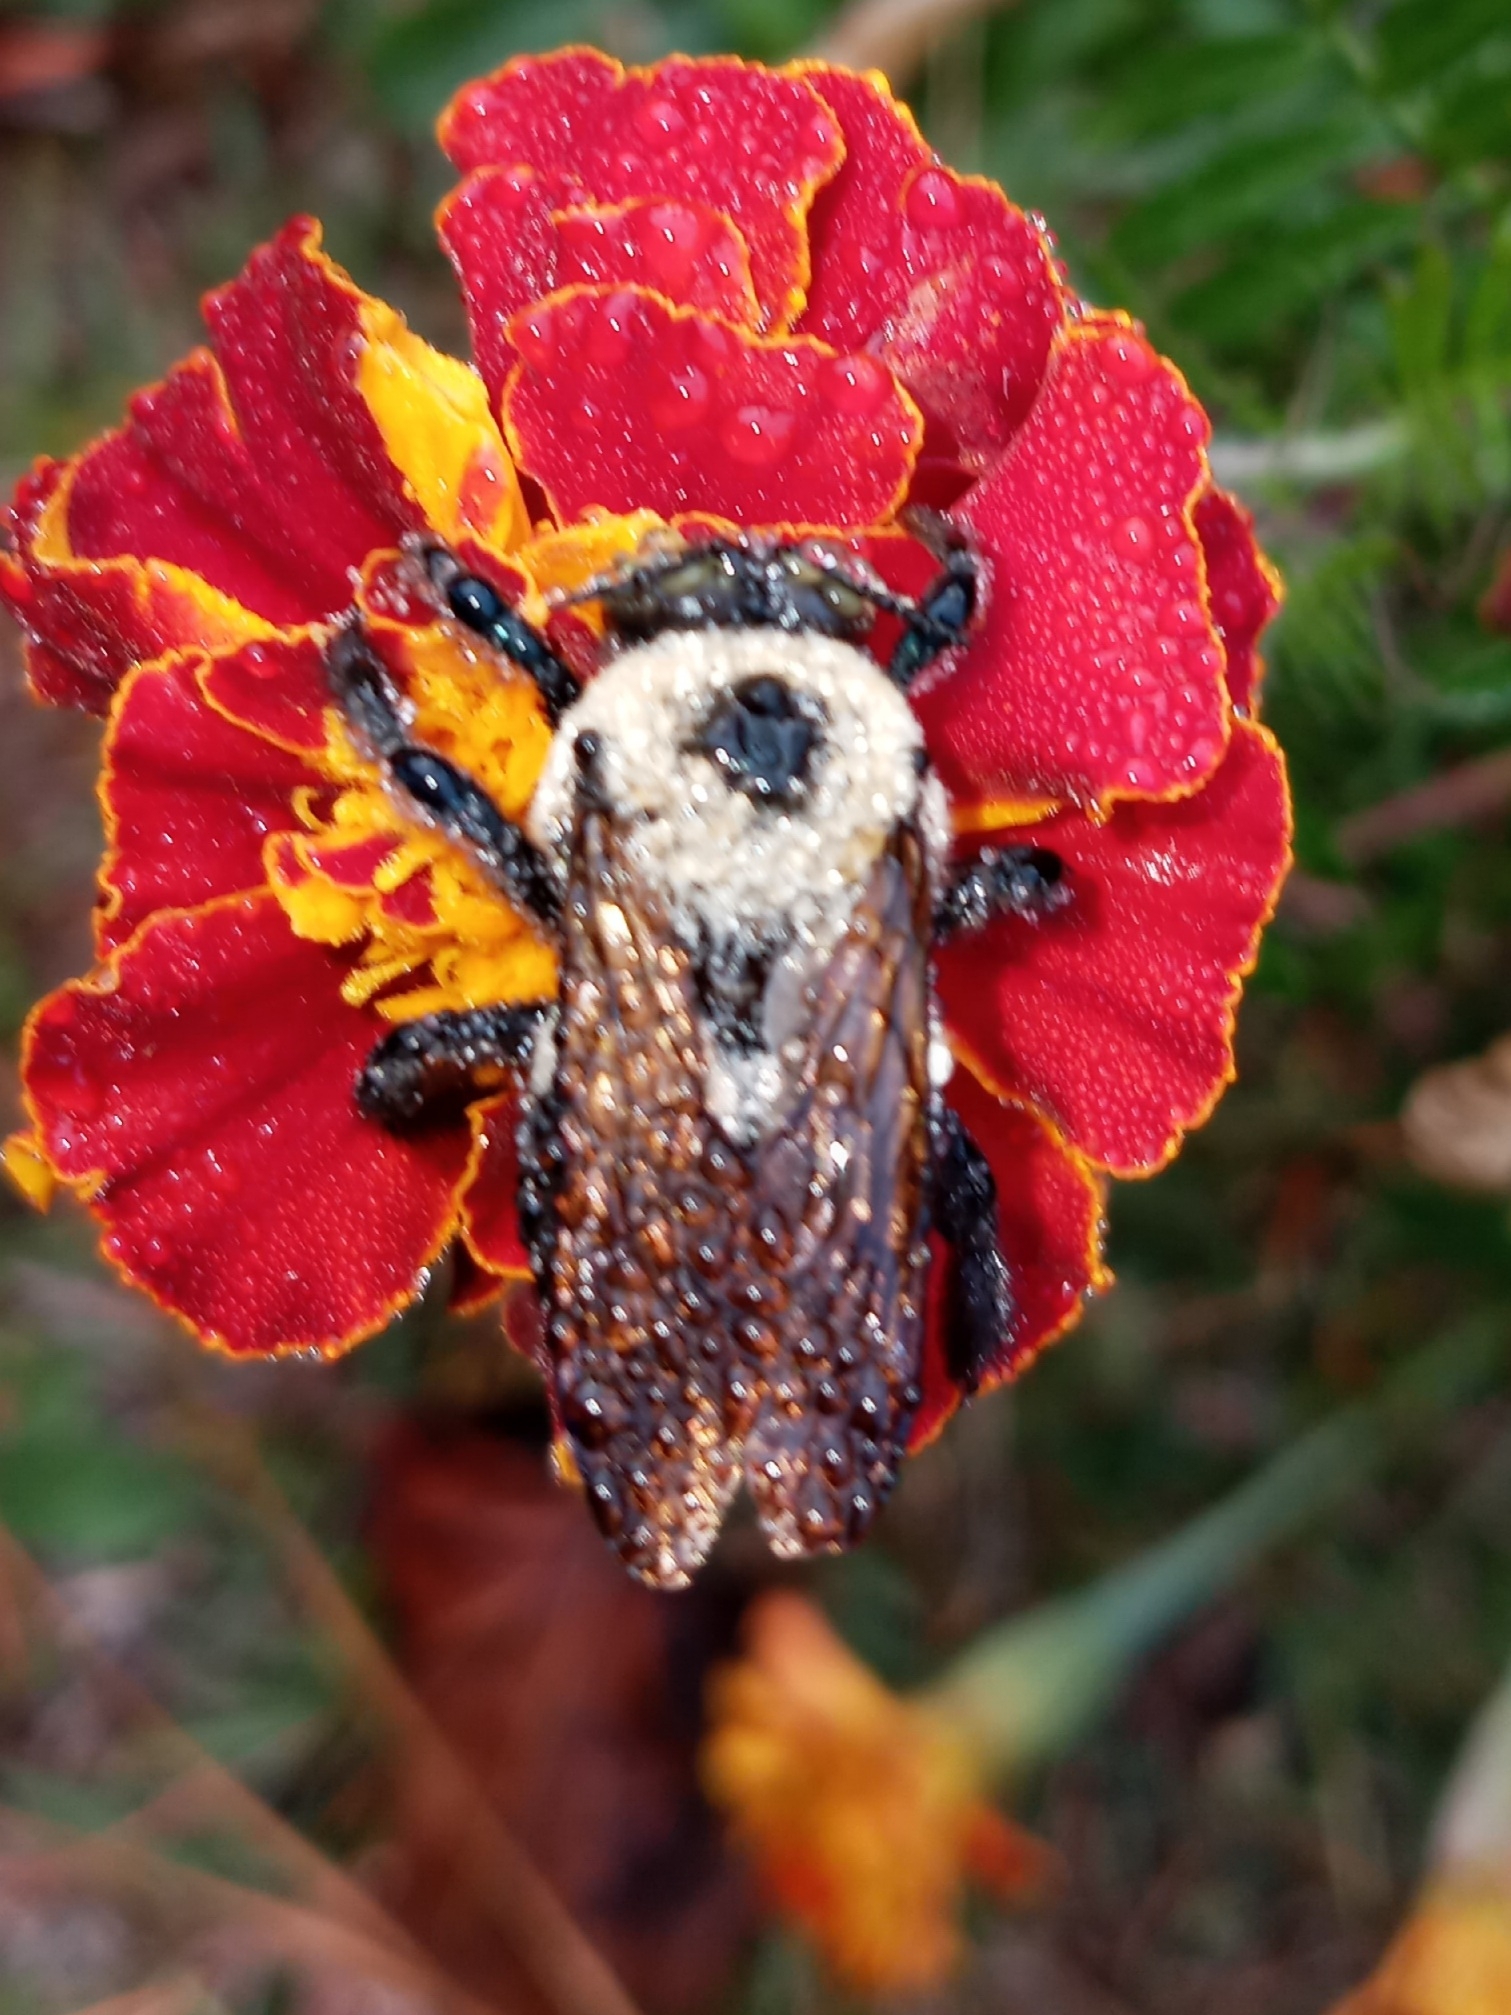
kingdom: Animalia
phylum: Arthropoda
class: Insecta
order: Hymenoptera
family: Apidae
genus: Xylocopa
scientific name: Xylocopa virginica
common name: Carpenter bee
